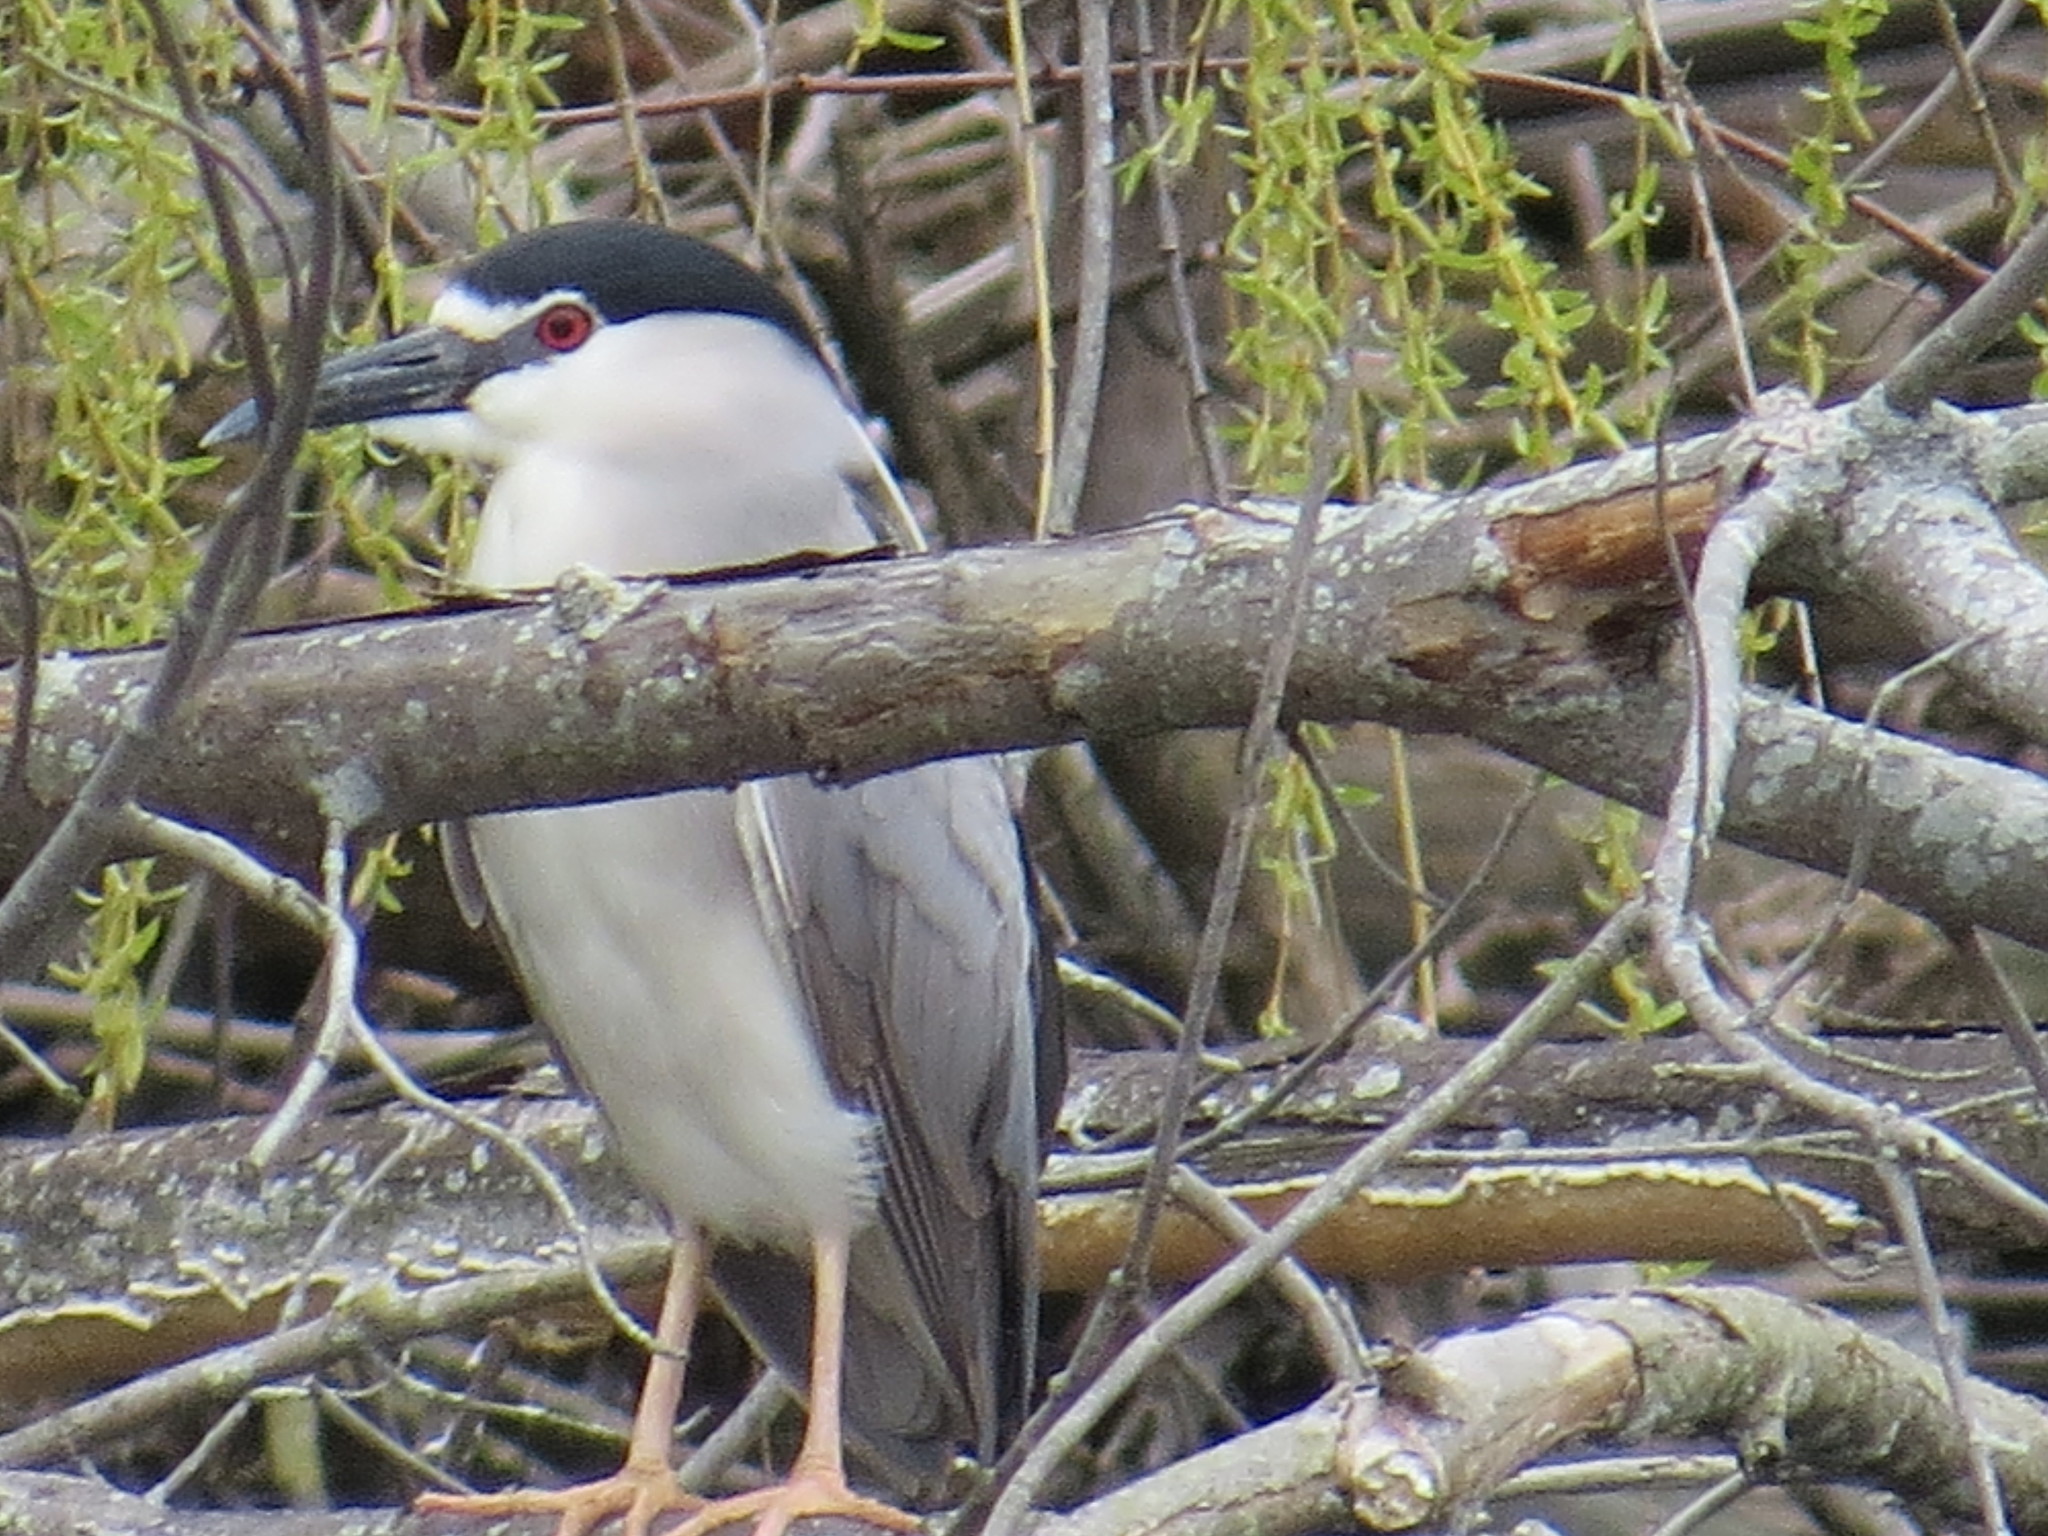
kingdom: Animalia
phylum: Chordata
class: Aves
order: Pelecaniformes
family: Ardeidae
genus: Nycticorax
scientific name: Nycticorax nycticorax
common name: Black-crowned night heron
